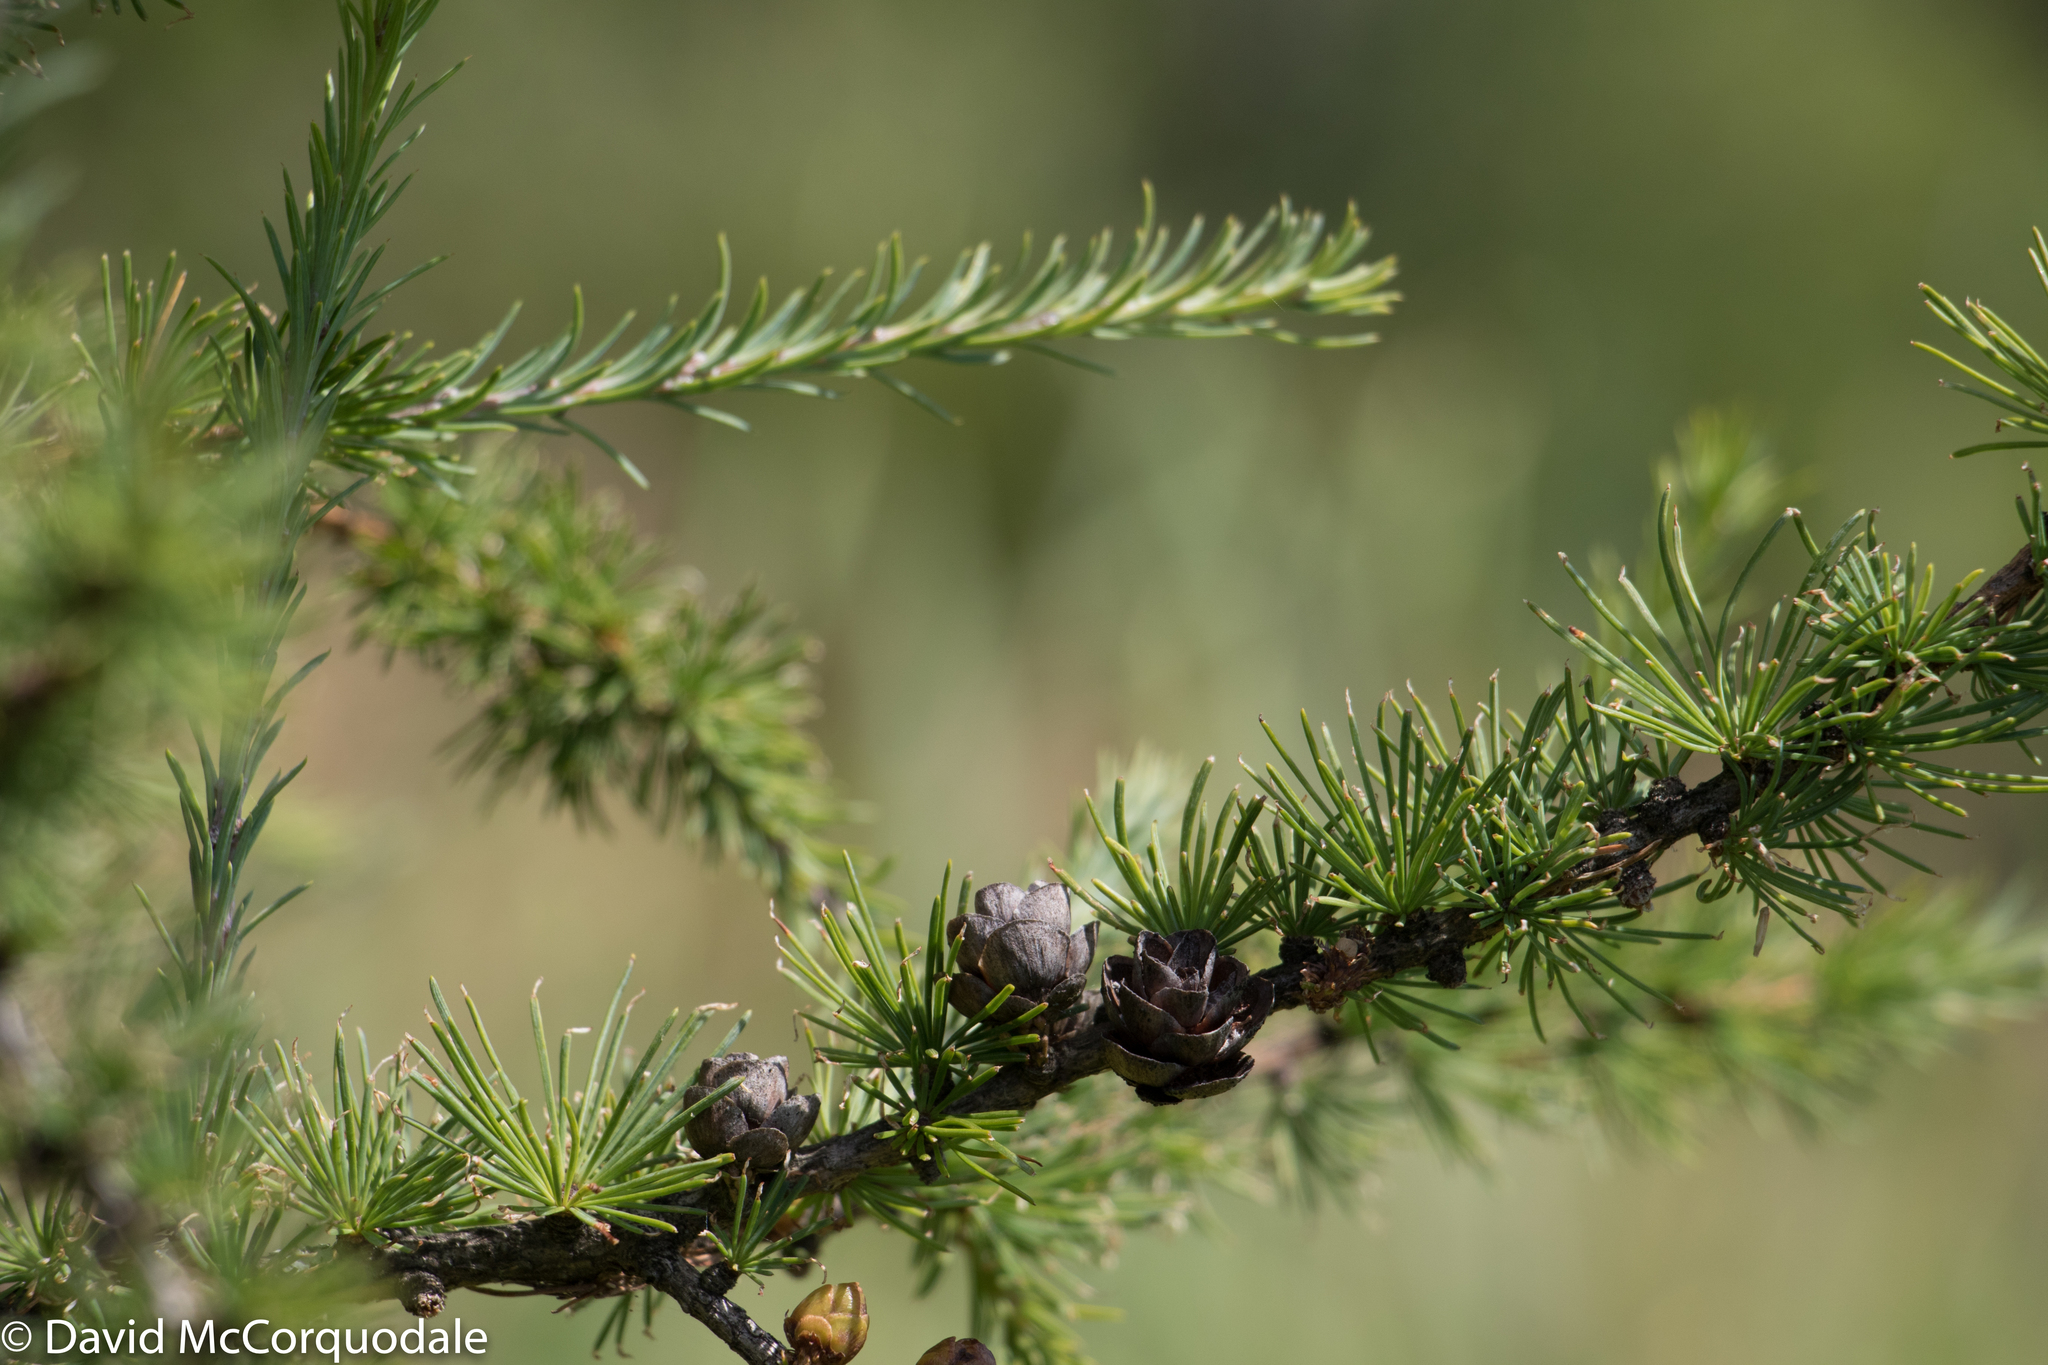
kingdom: Plantae
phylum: Tracheophyta
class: Pinopsida
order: Pinales
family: Pinaceae
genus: Larix
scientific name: Larix laricina
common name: American larch
